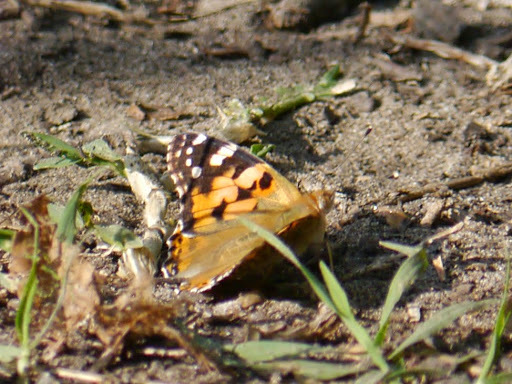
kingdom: Animalia
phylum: Arthropoda
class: Insecta
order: Lepidoptera
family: Nymphalidae
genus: Vanessa
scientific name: Vanessa cardui
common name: Painted lady
